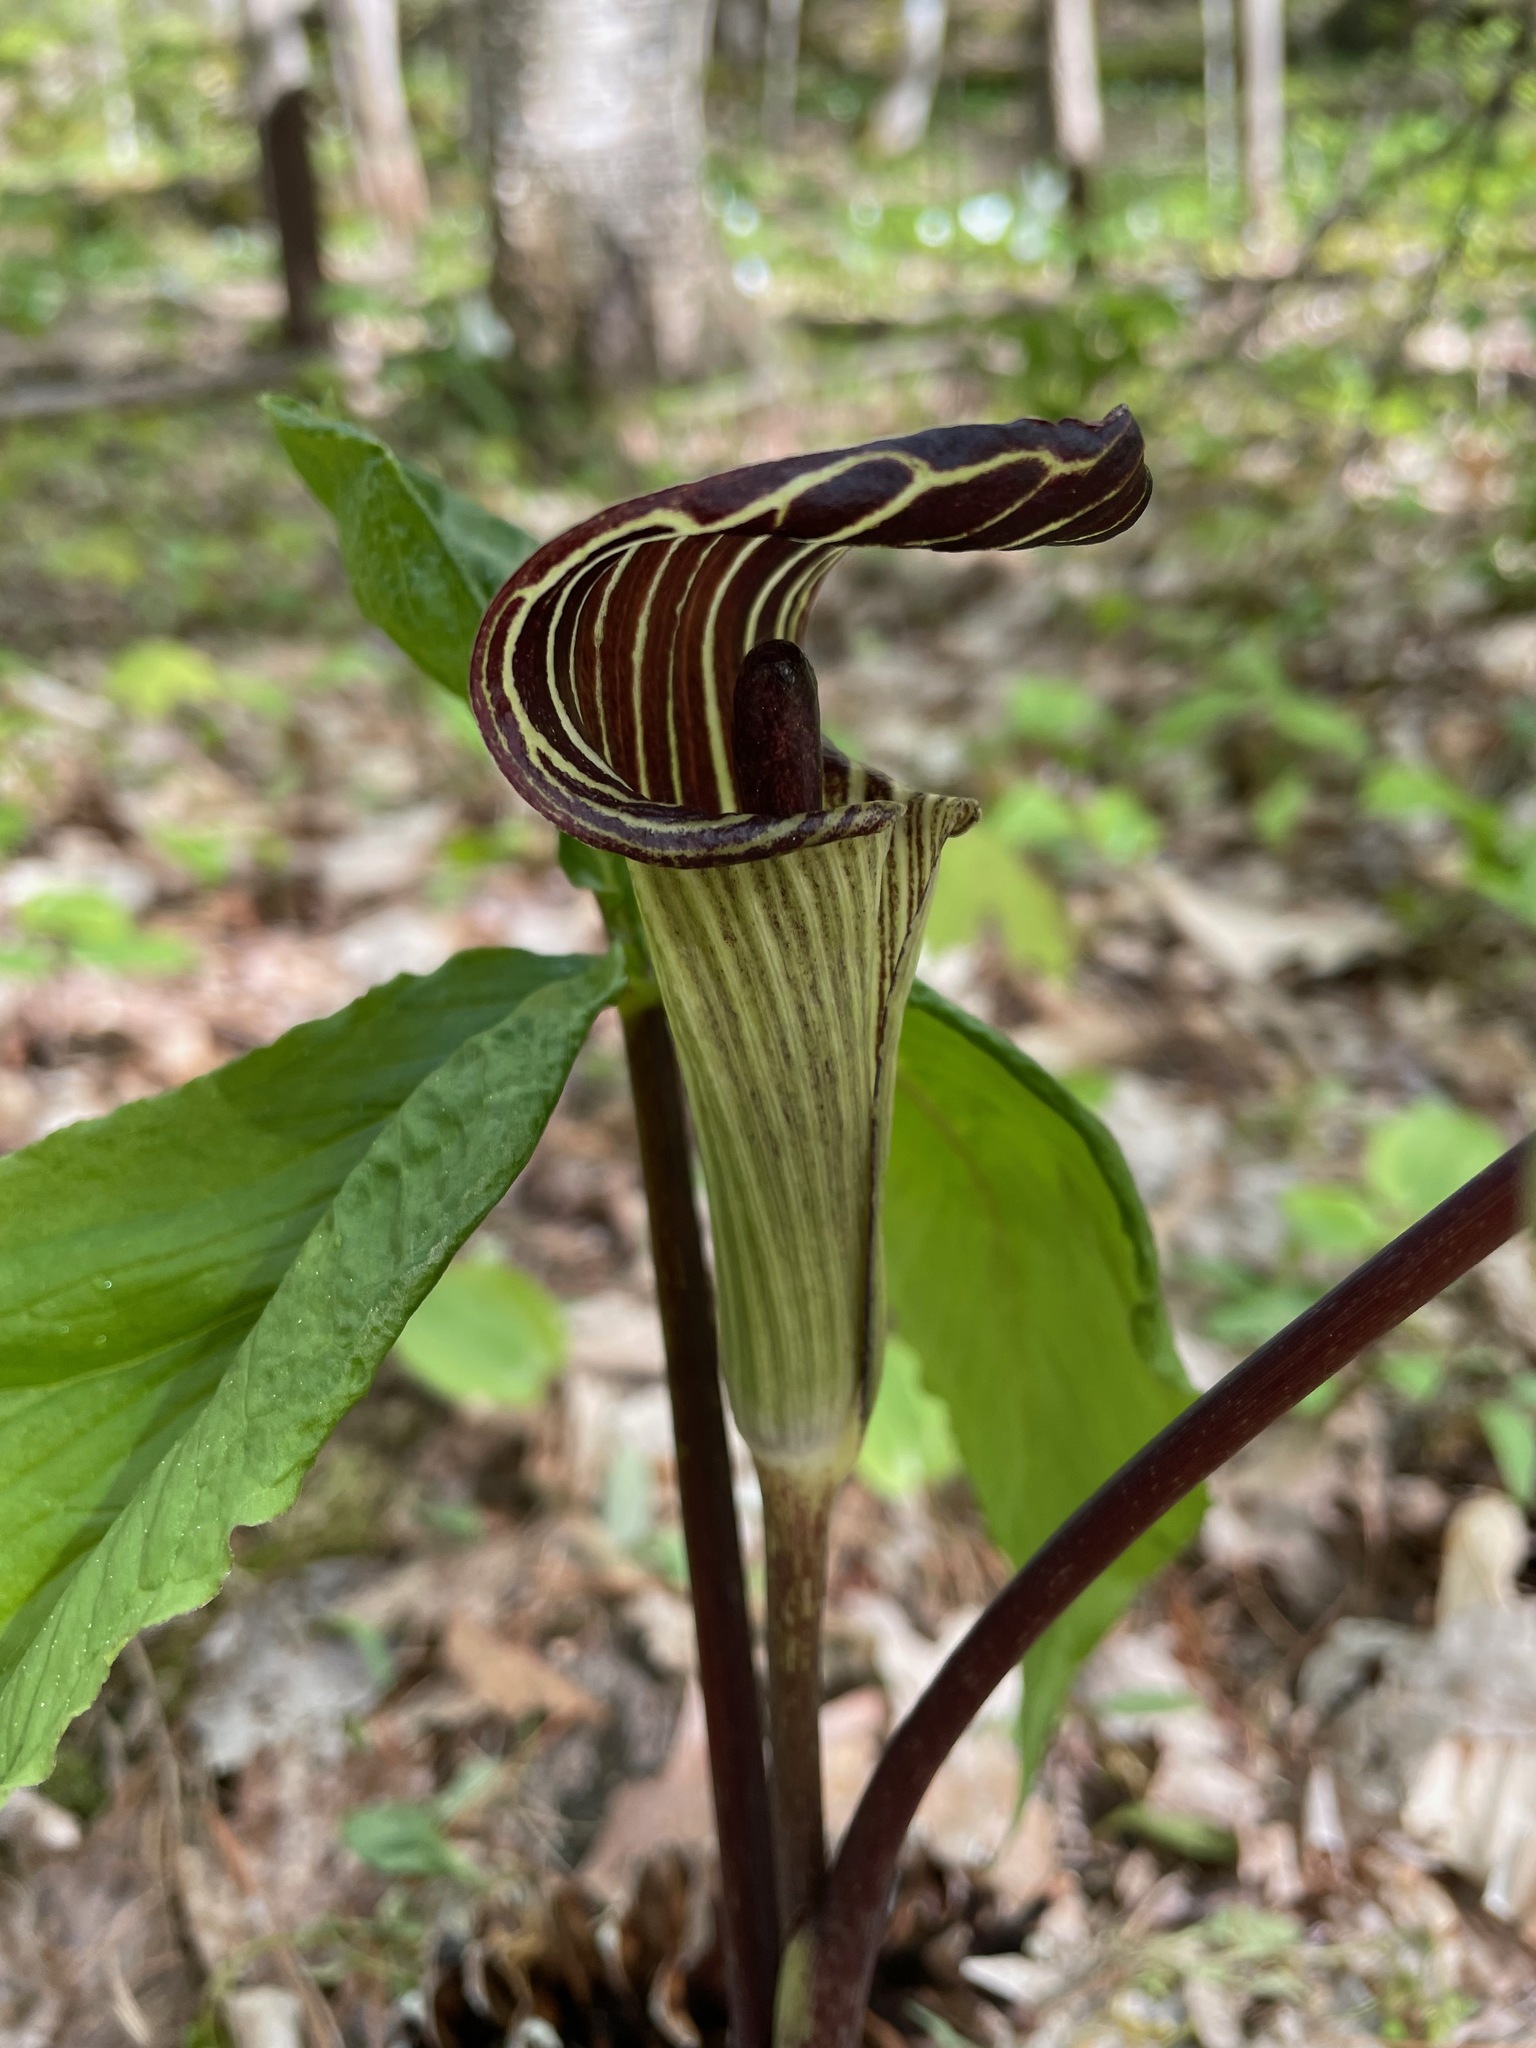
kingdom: Plantae
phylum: Tracheophyta
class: Liliopsida
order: Alismatales
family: Araceae
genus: Arisaema
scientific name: Arisaema triphyllum
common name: Jack-in-the-pulpit
